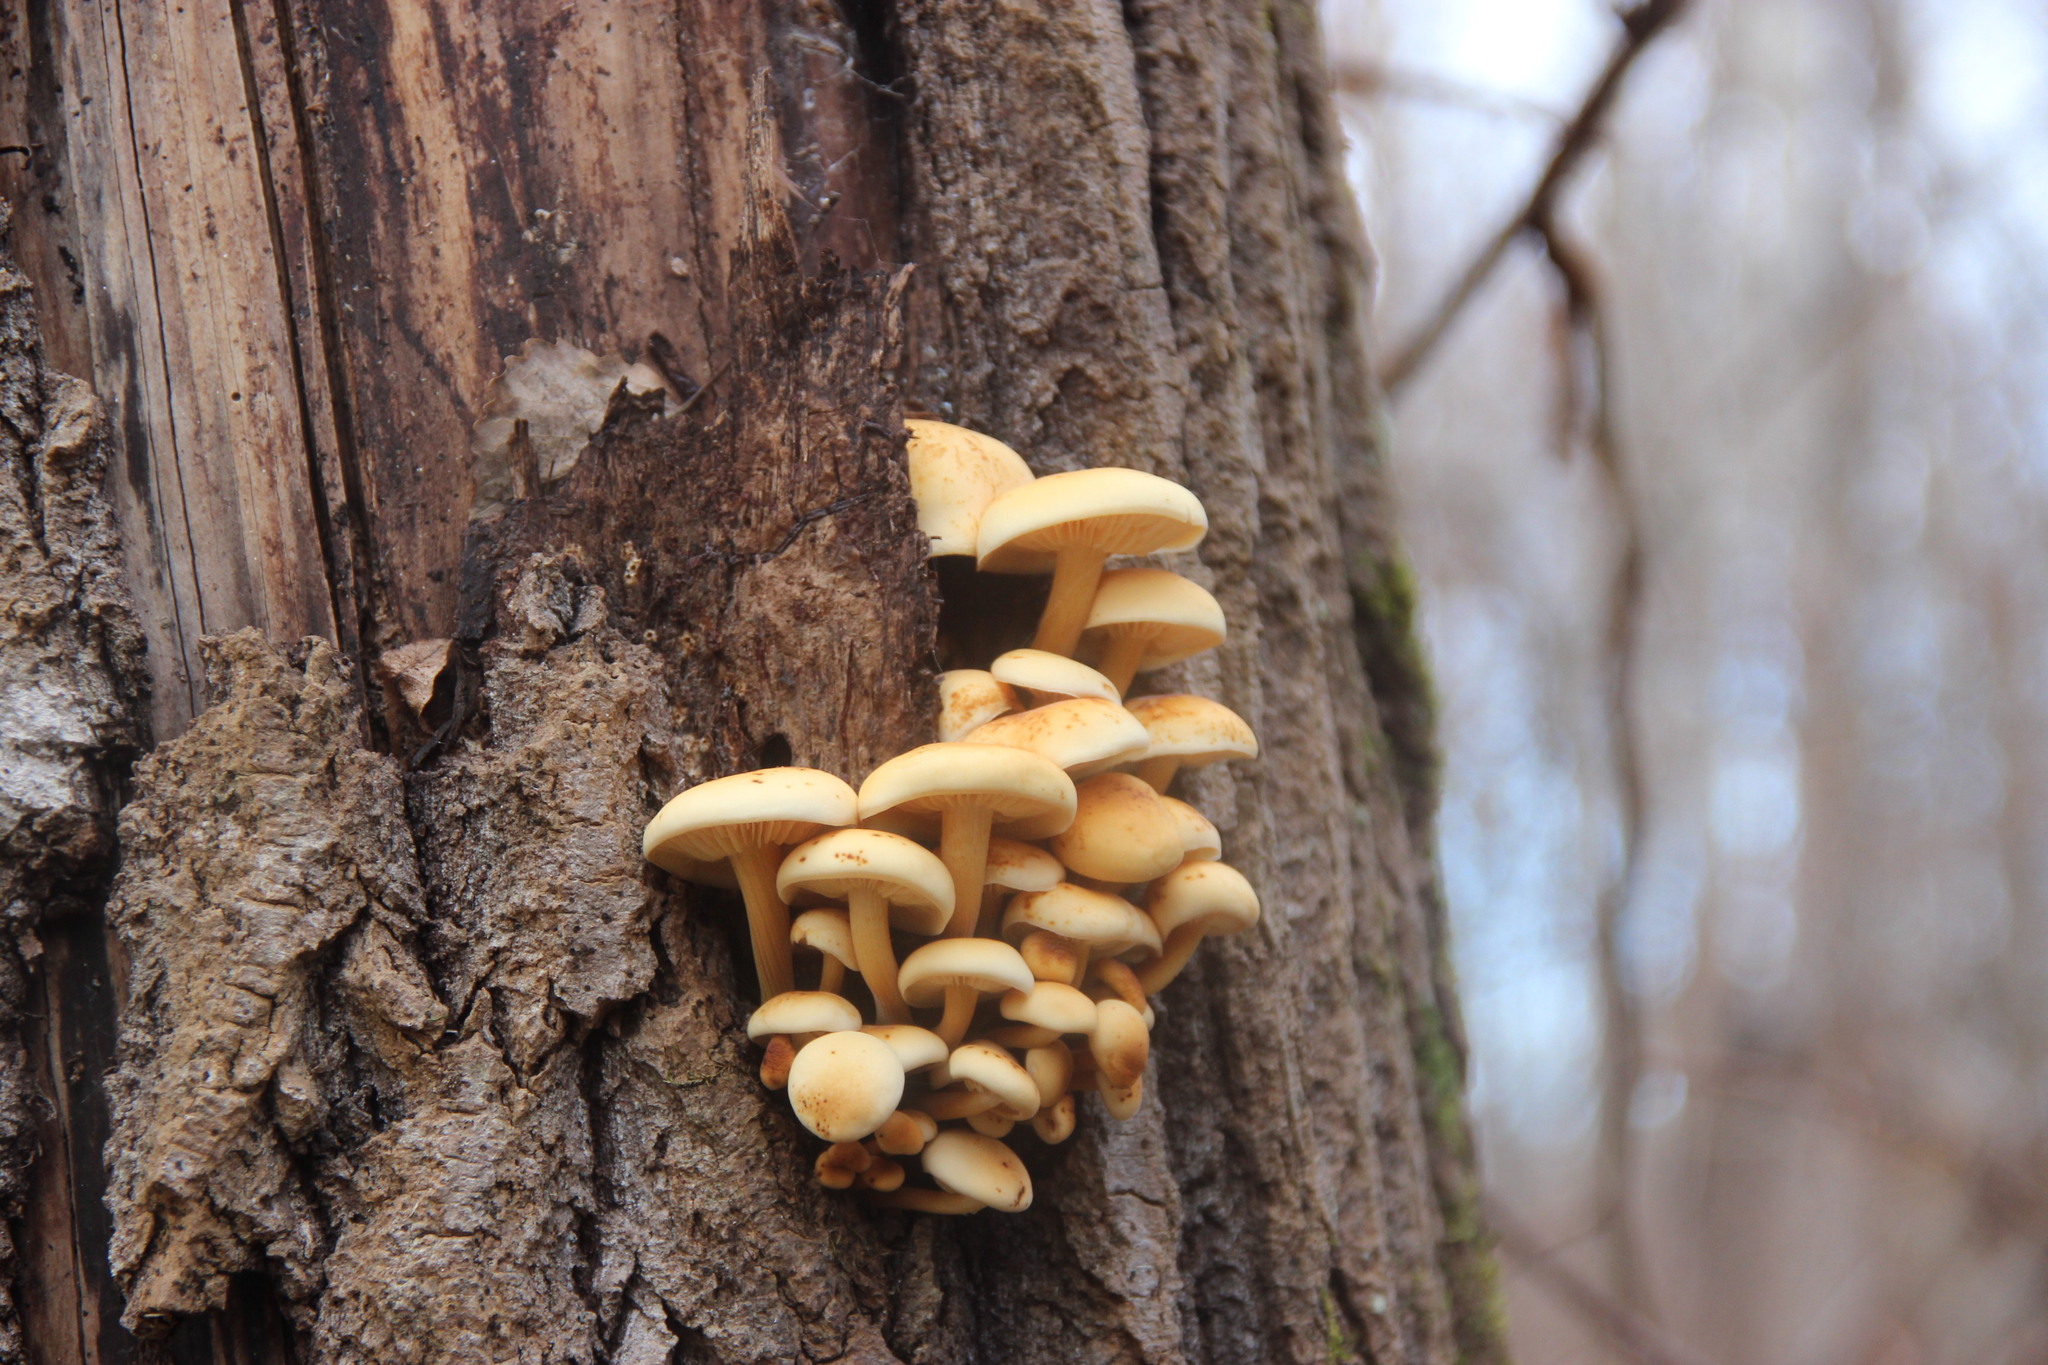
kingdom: Fungi
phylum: Basidiomycota
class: Agaricomycetes
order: Agaricales
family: Physalacriaceae
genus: Flammulina
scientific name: Flammulina
